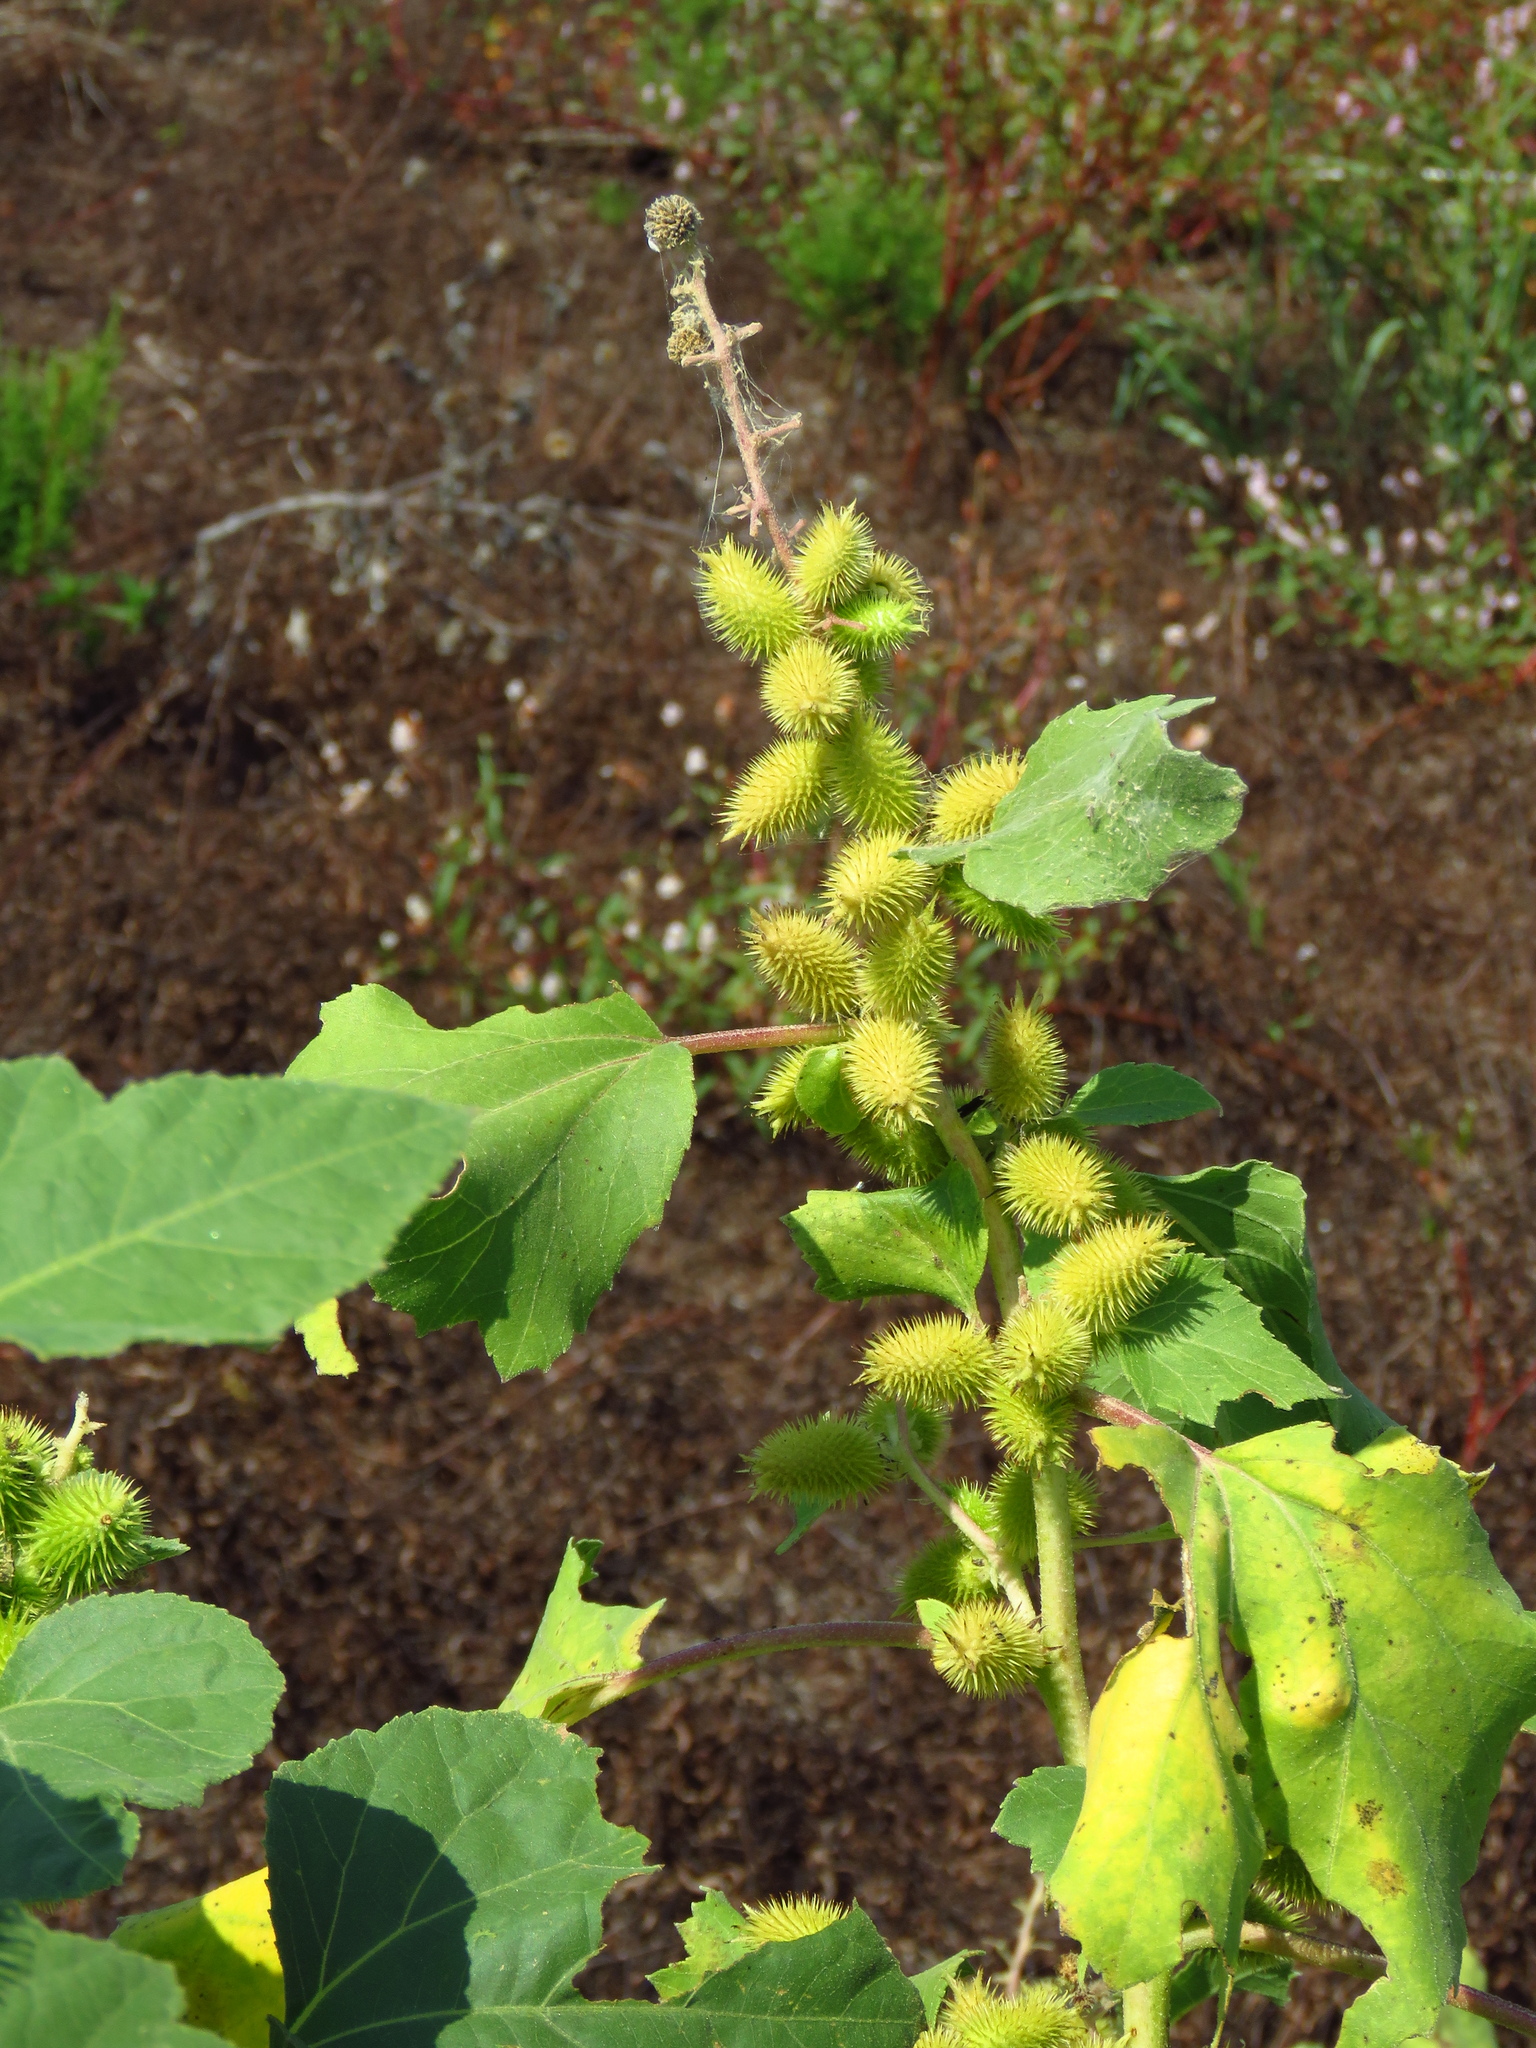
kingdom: Plantae
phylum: Tracheophyta
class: Magnoliopsida
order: Asterales
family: Asteraceae
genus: Xanthium
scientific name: Xanthium strumarium
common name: Rough cocklebur
